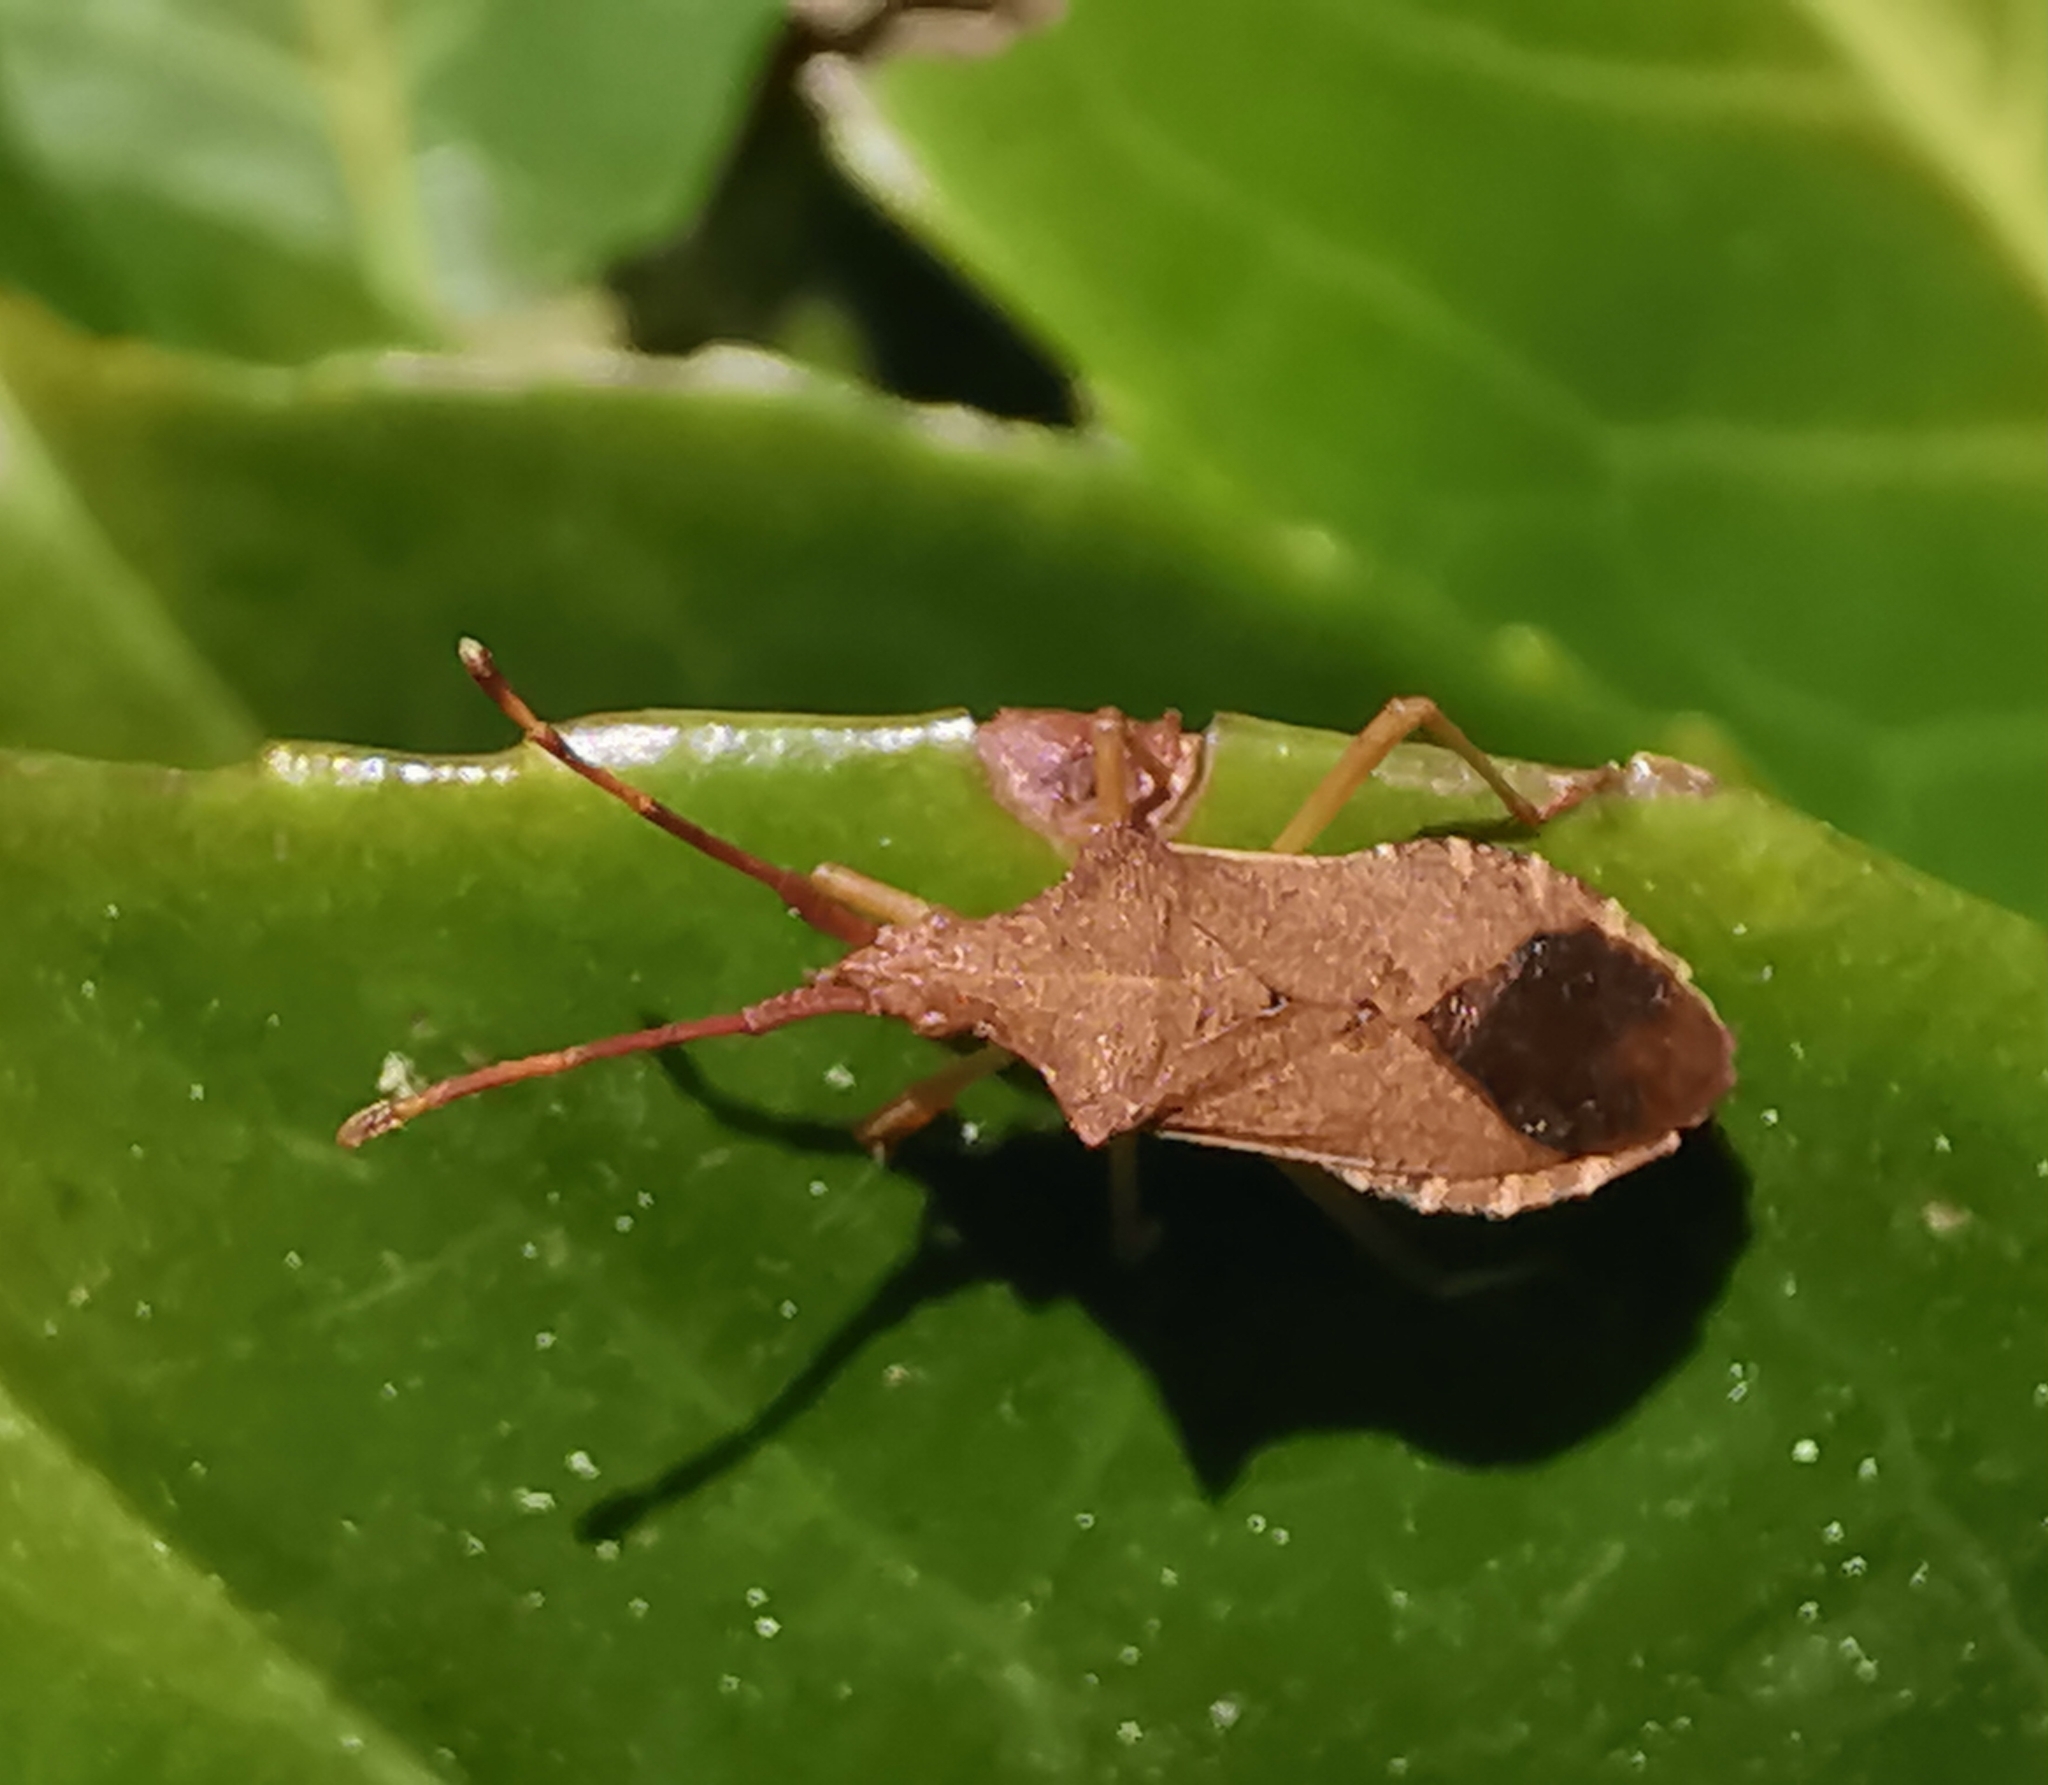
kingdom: Animalia
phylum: Arthropoda
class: Insecta
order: Hemiptera
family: Coreidae
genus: Gonocerus
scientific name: Gonocerus acuteangulatus
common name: Box bug
